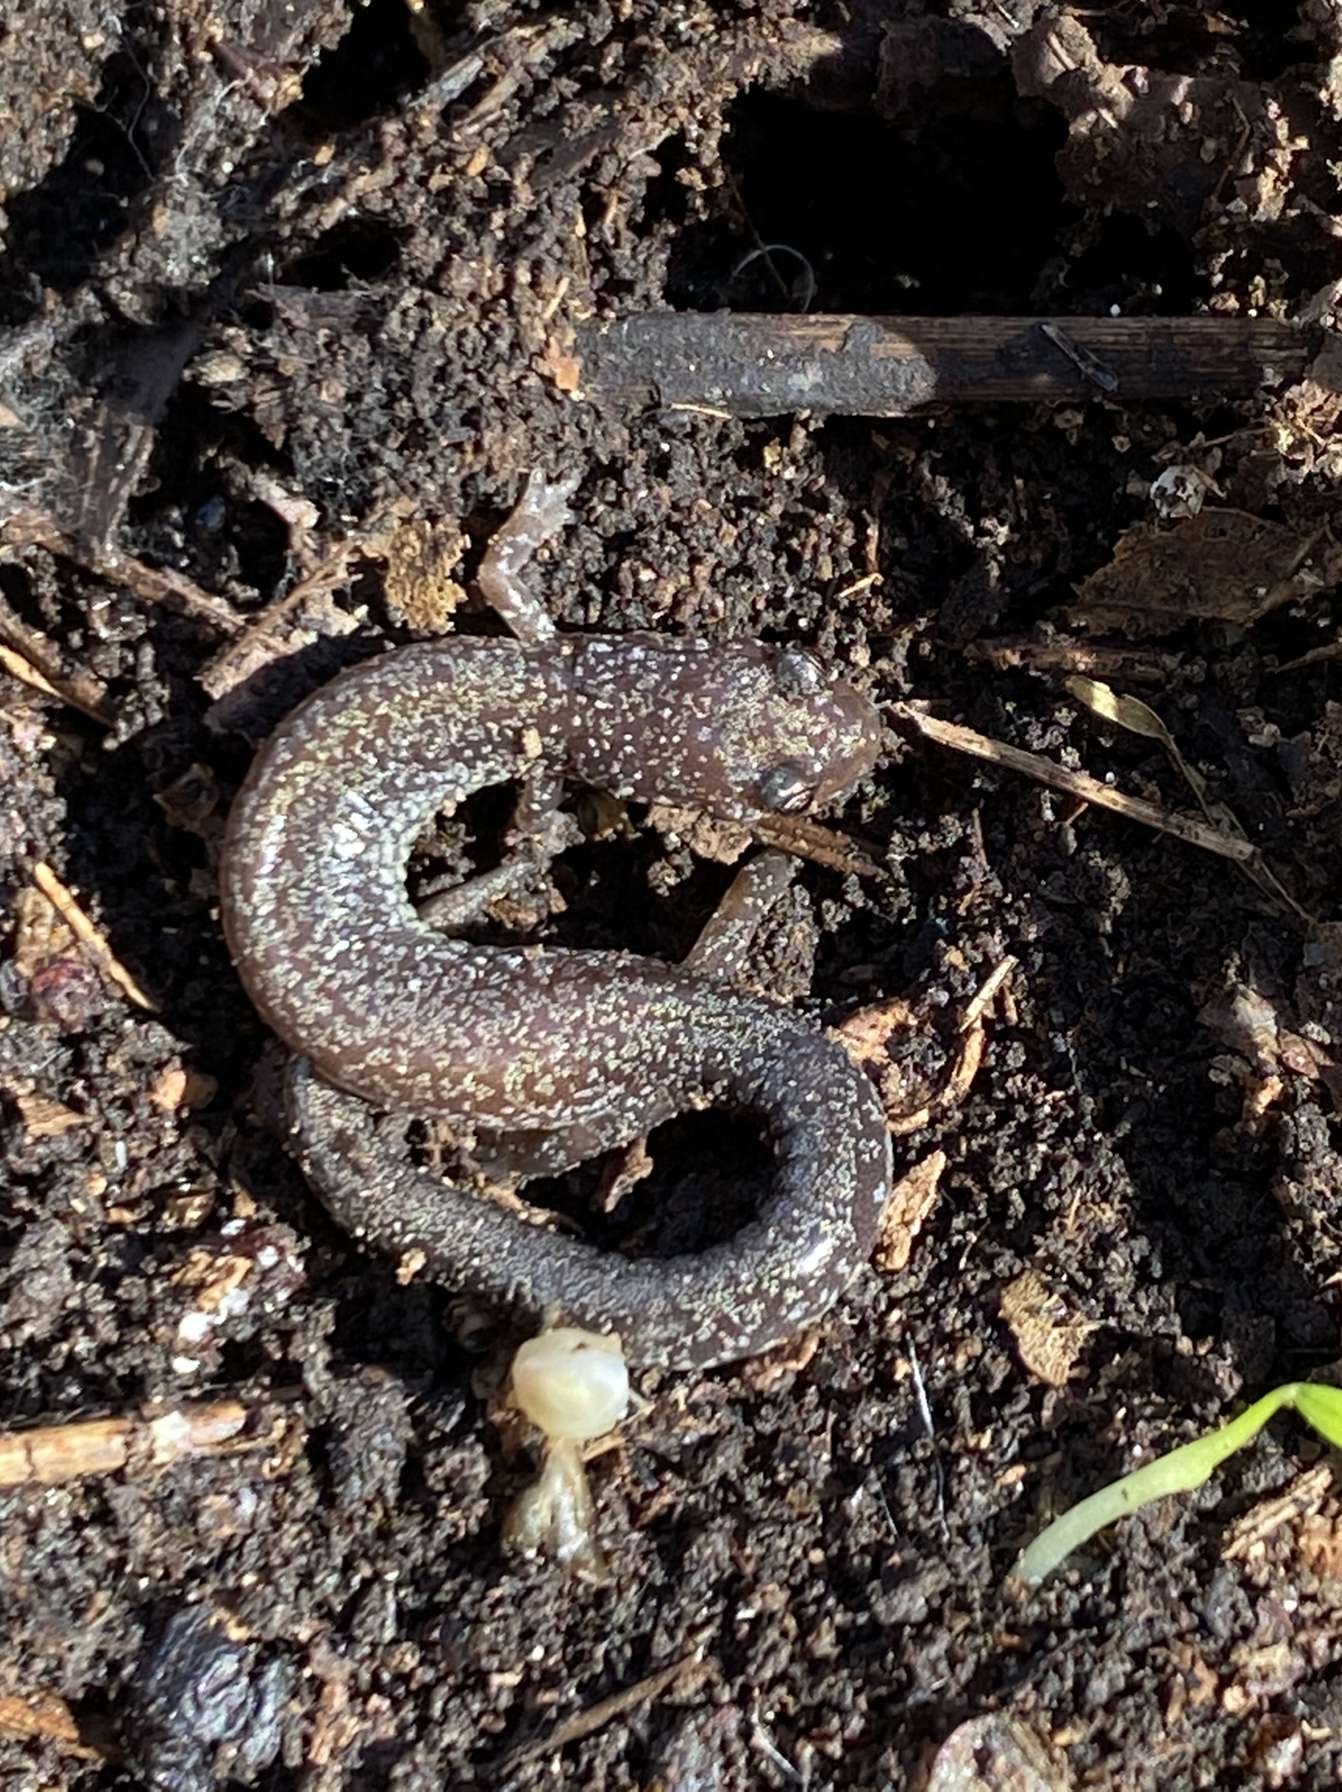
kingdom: Animalia
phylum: Chordata
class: Amphibia
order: Caudata
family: Plethodontidae
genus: Plethodon
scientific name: Plethodon cinereus
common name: Redback salamander
